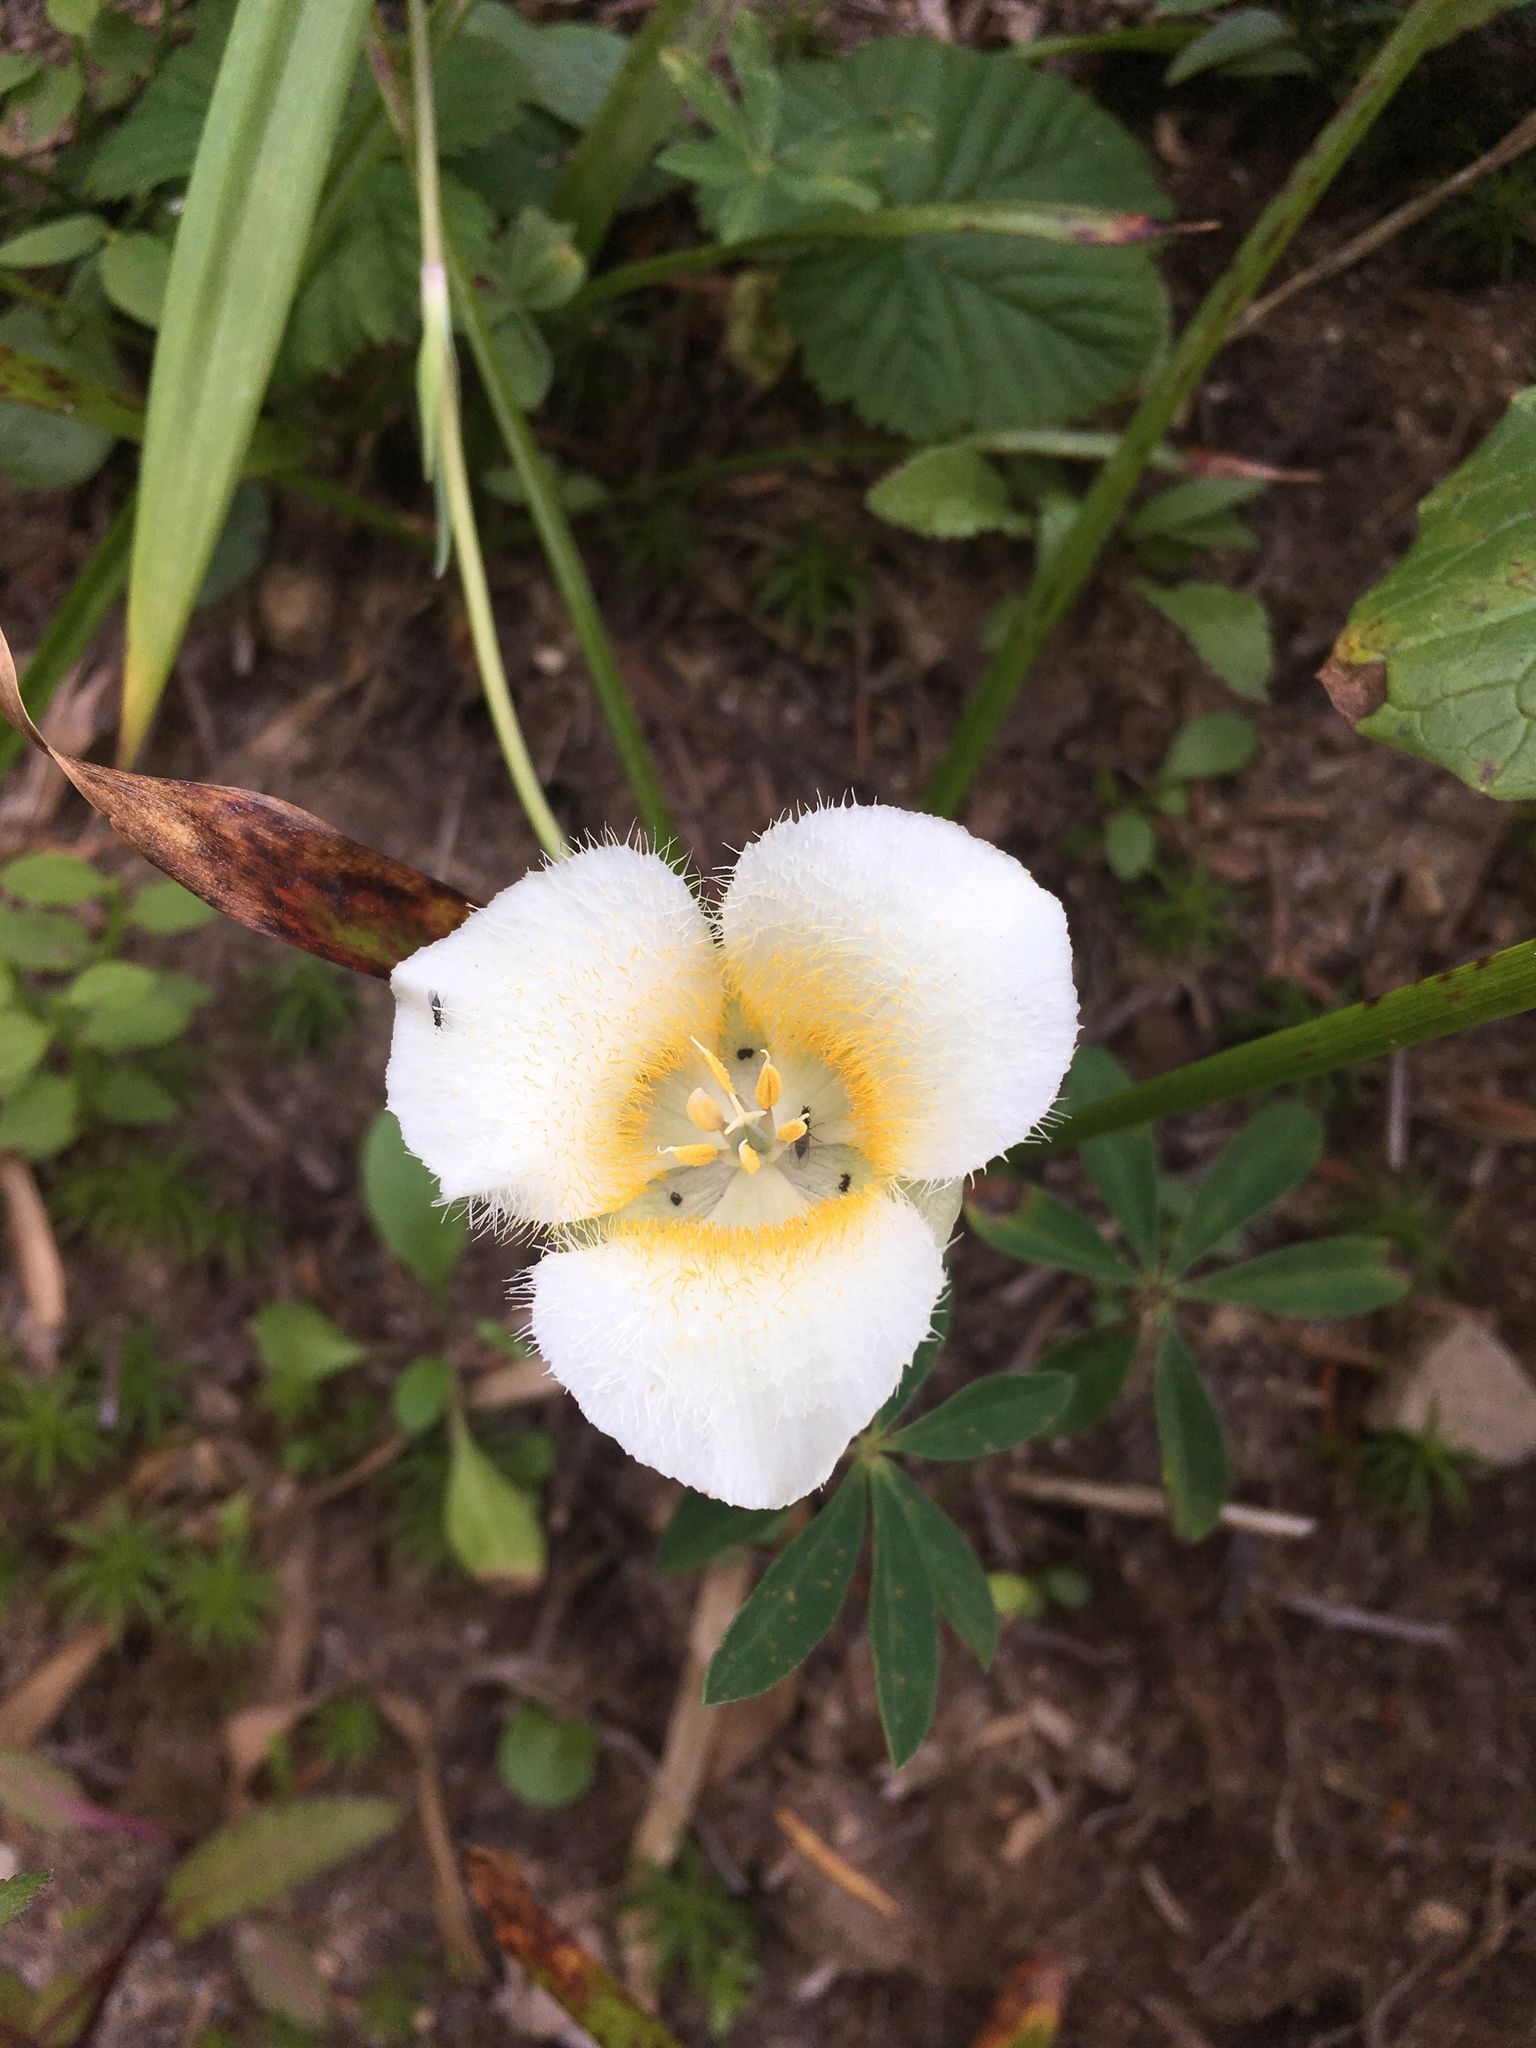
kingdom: Plantae
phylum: Tracheophyta
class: Liliopsida
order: Liliales
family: Liliaceae
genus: Calochortus
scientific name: Calochortus subalpinus
